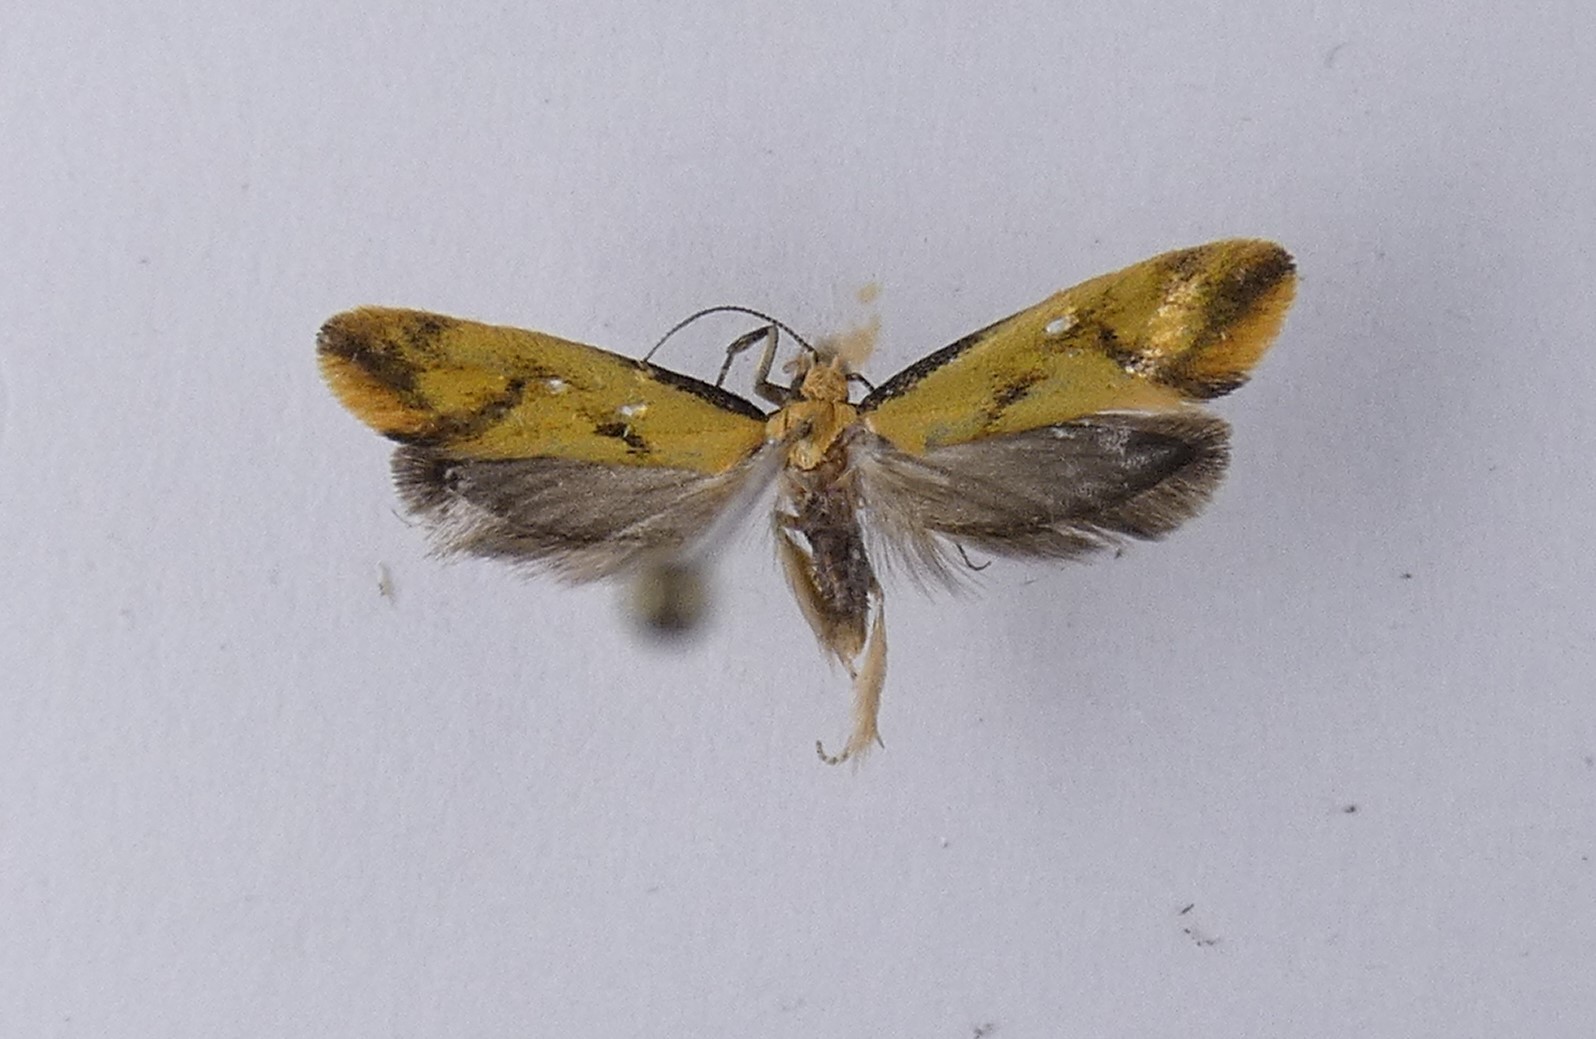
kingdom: Animalia
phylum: Arthropoda
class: Insecta
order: Lepidoptera
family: Oecophoridae
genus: Tingena
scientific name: Tingena actinias
